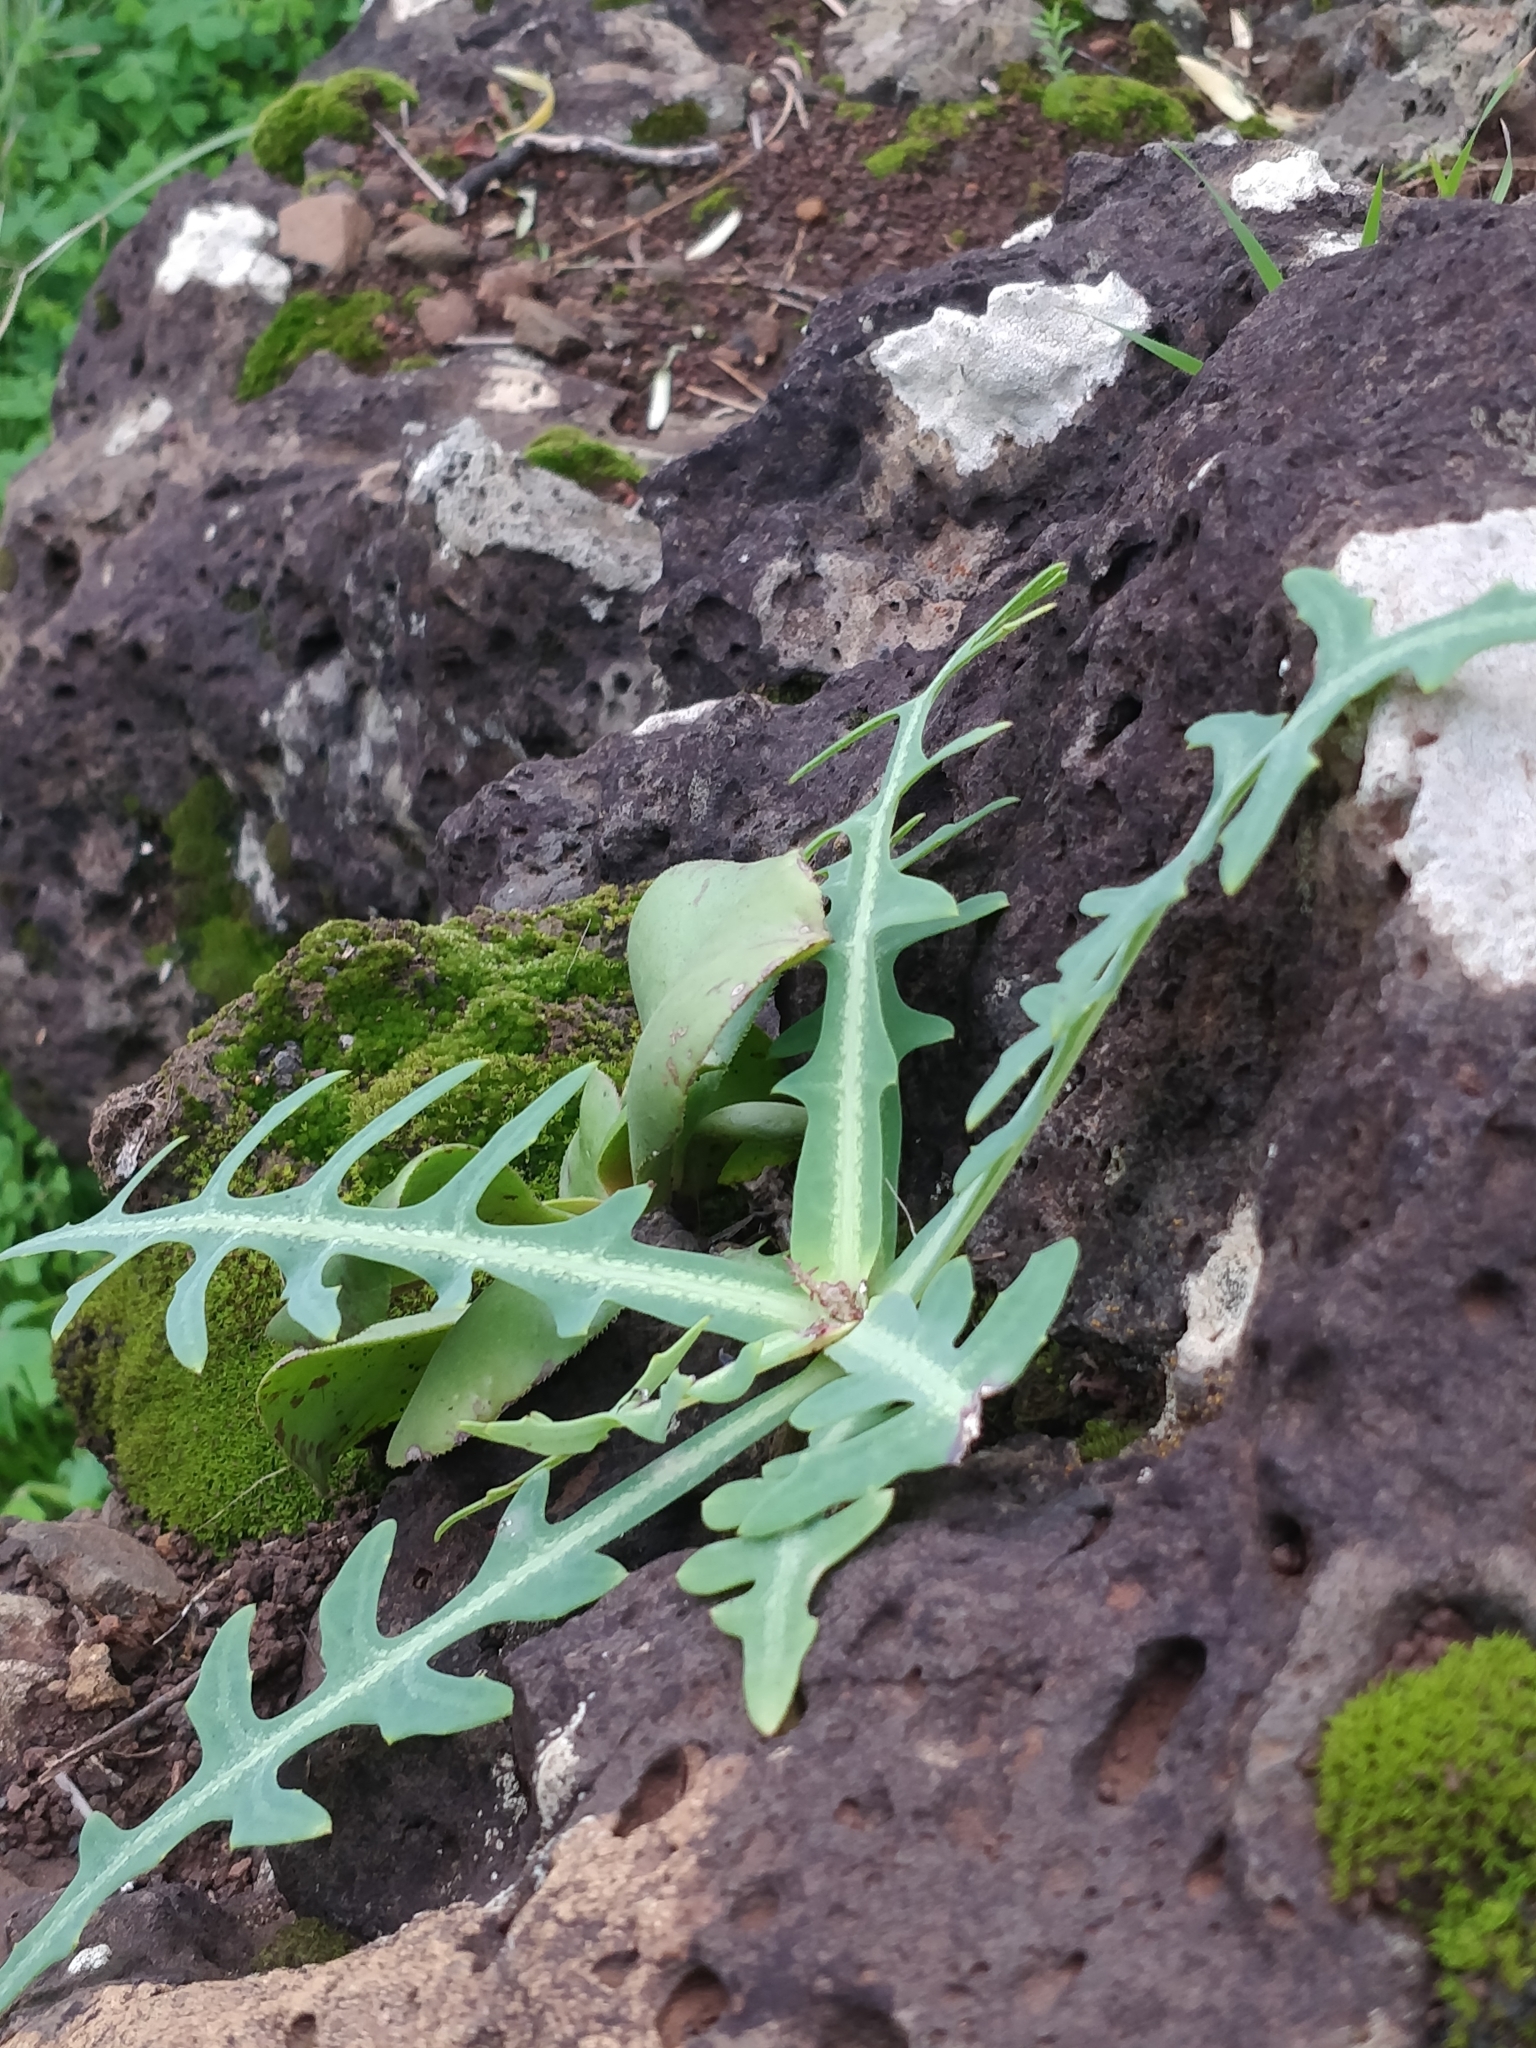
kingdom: Plantae
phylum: Tracheophyta
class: Magnoliopsida
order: Asterales
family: Asteraceae
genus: Sonchus
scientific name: Sonchus ustulatus
